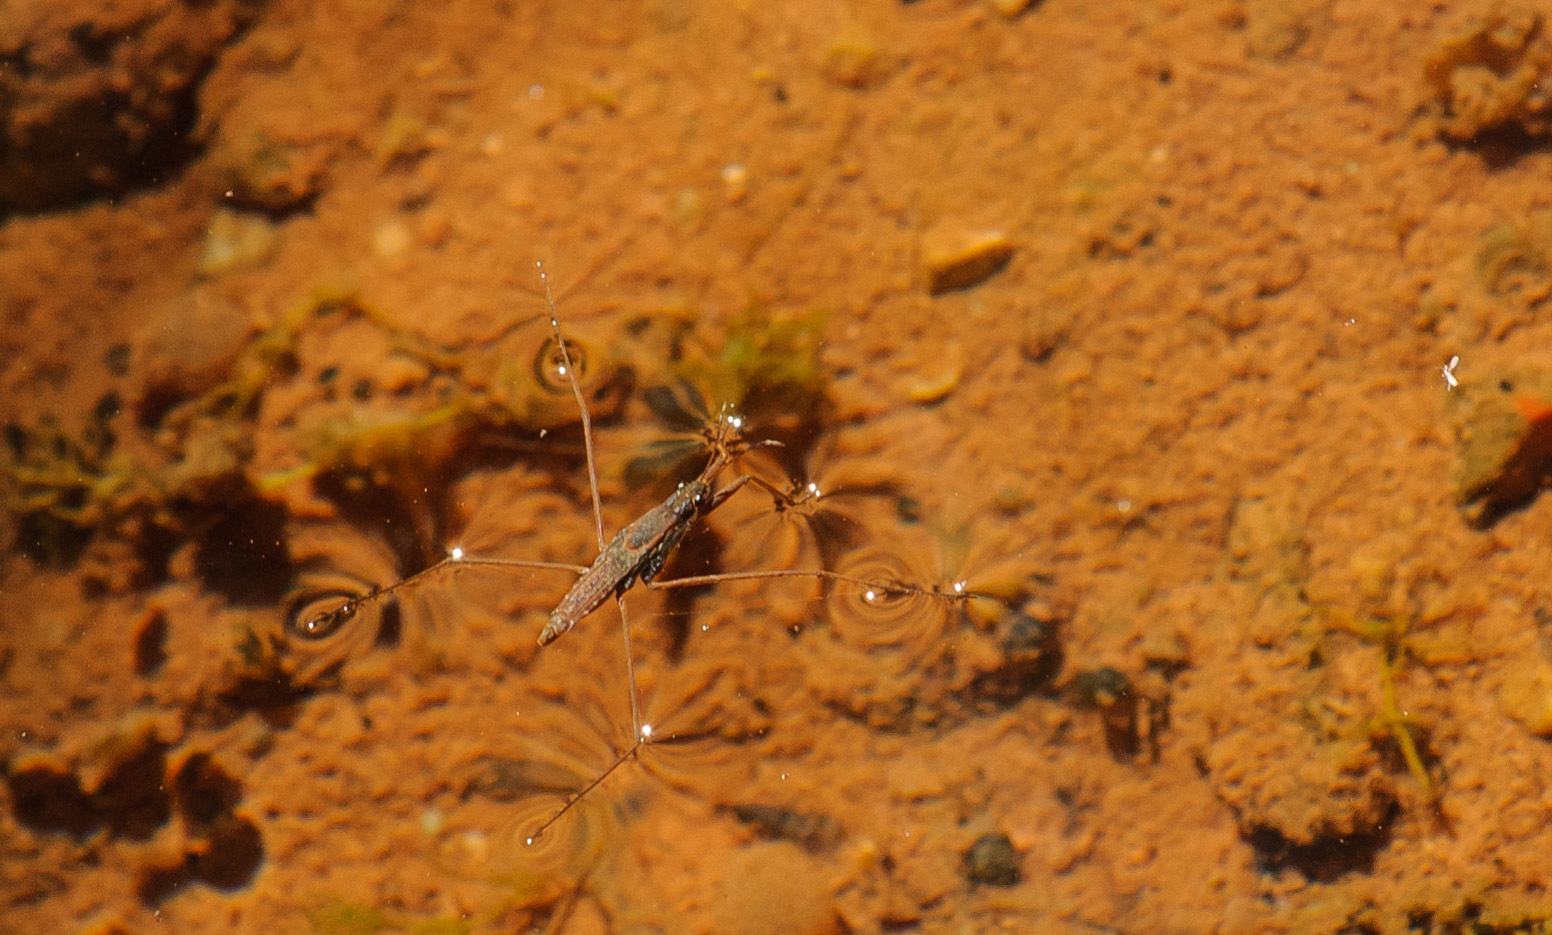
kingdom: Animalia
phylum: Arthropoda
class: Insecta
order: Hemiptera
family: Gerridae
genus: Aquarius
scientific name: Aquarius remigis
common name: Common water strider
